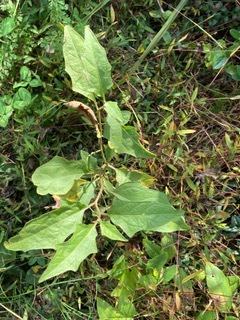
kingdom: Plantae
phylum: Tracheophyta
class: Magnoliopsida
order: Solanales
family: Solanaceae
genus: Solanum
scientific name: Solanum carolinense
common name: Horse-nettle
